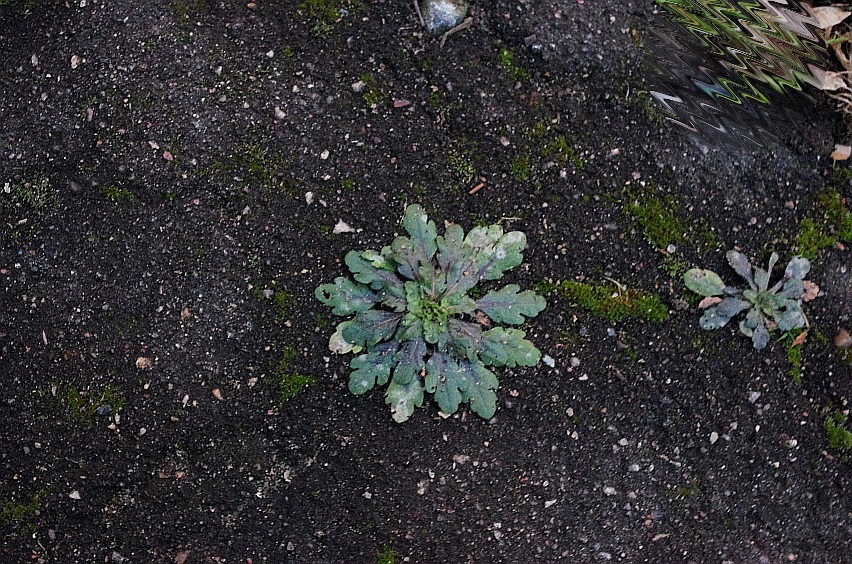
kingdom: Plantae
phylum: Tracheophyta
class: Magnoliopsida
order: Asterales
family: Asteraceae
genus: Erigeron
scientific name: Erigeron canadensis
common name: Canadian fleabane
